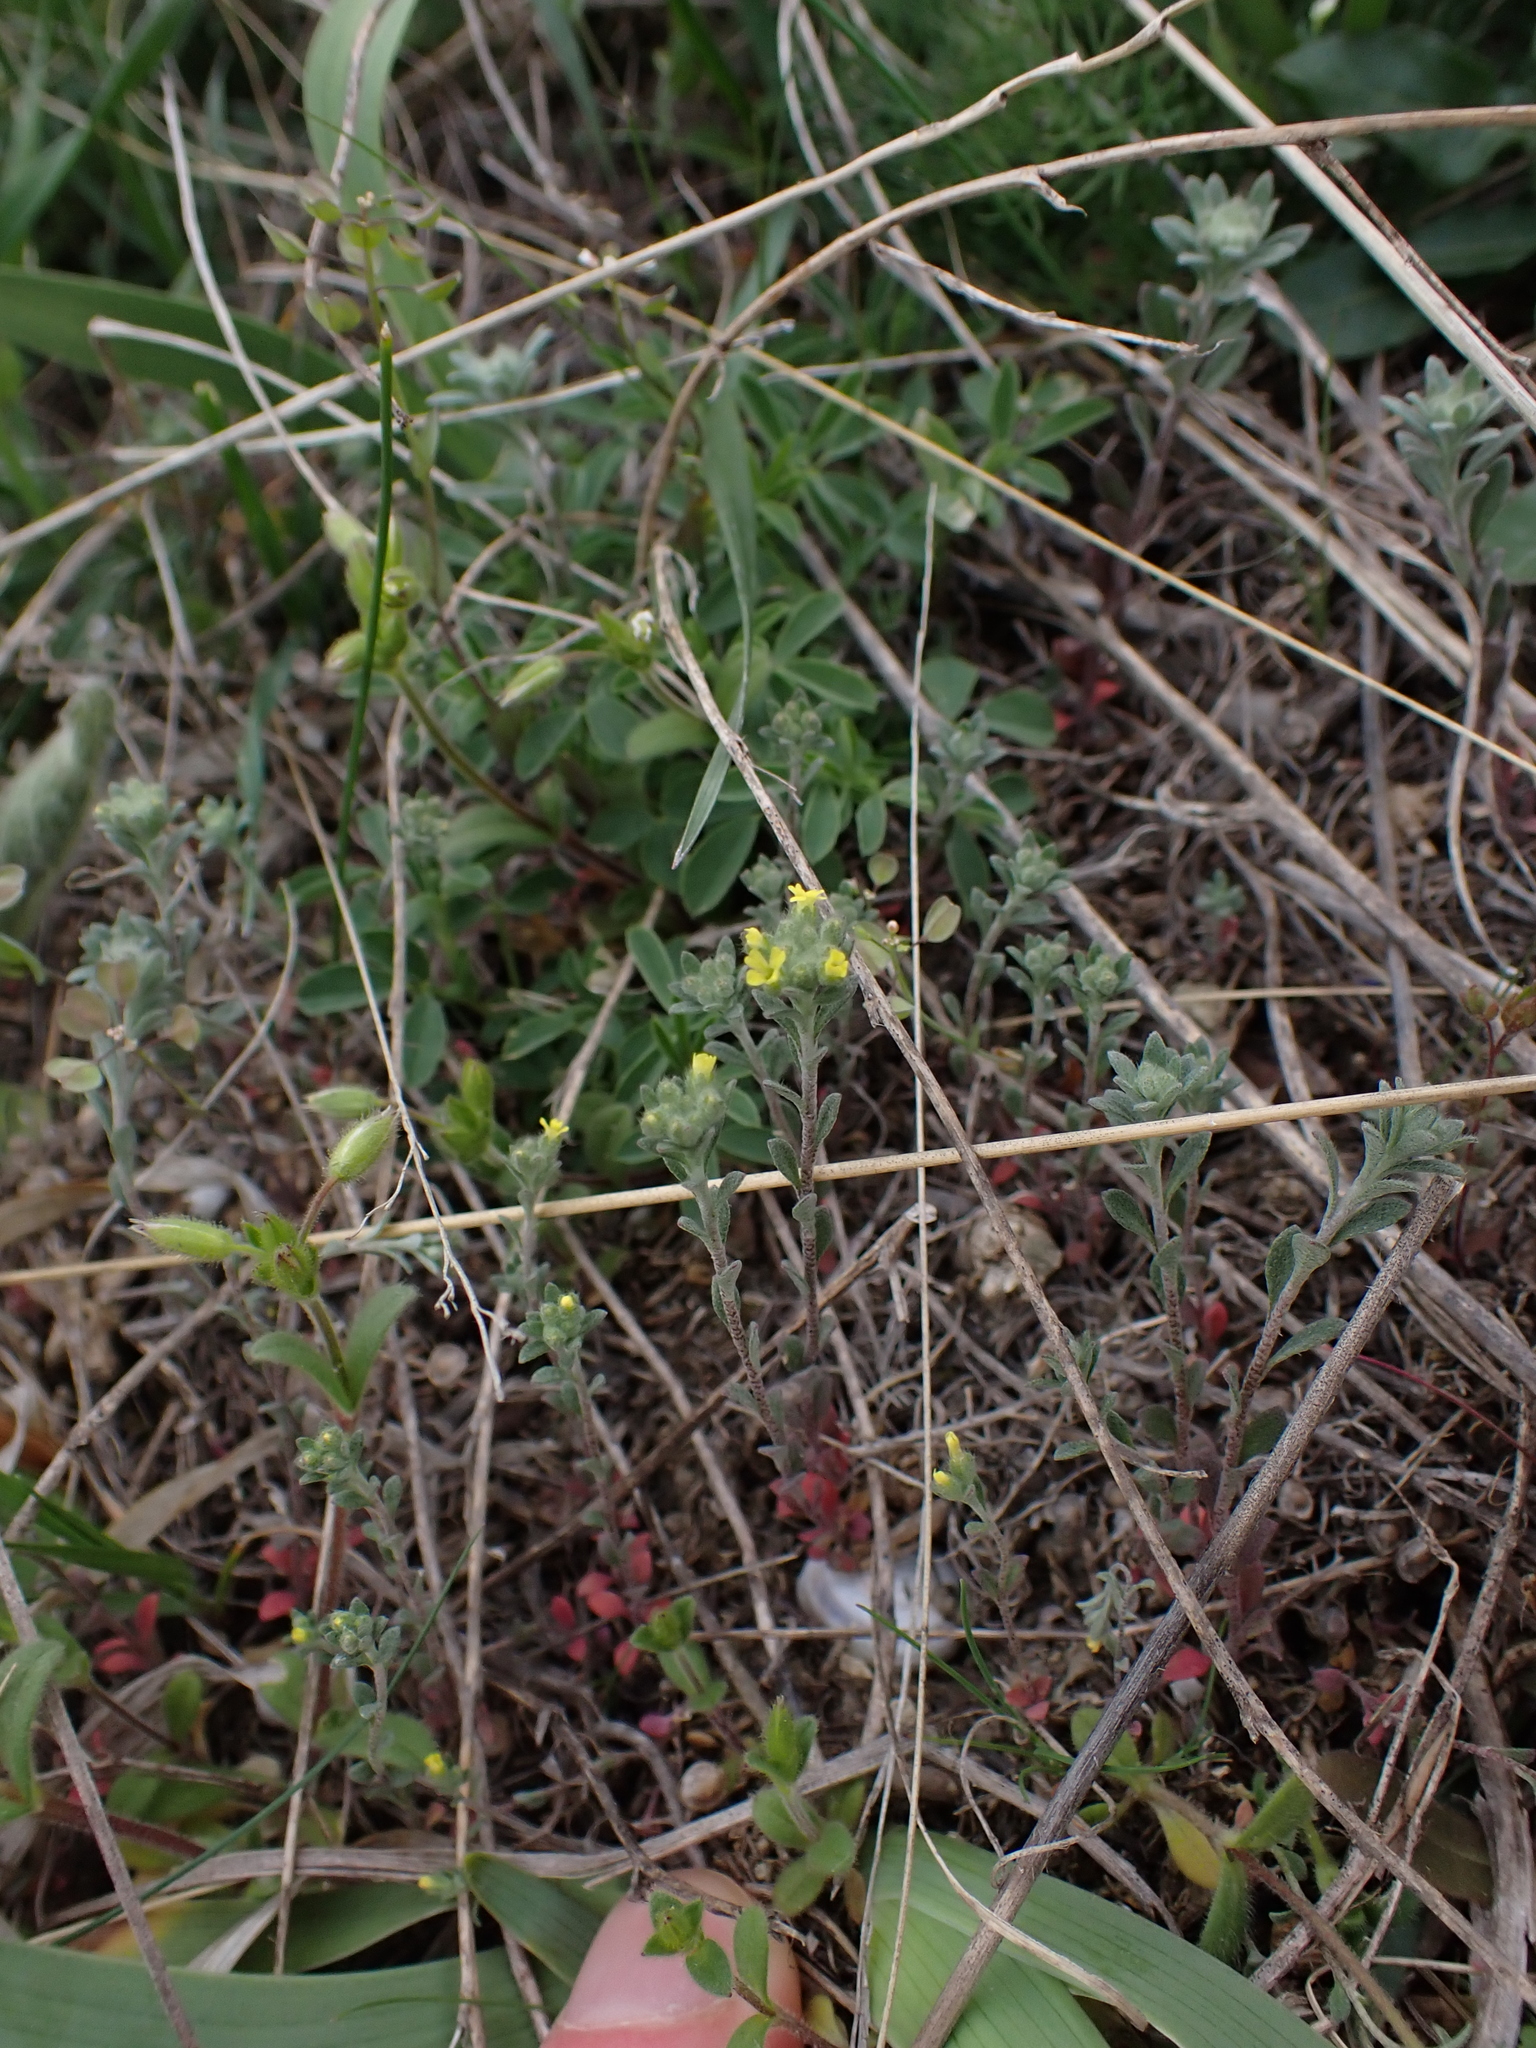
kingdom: Plantae
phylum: Tracheophyta
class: Magnoliopsida
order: Brassicales
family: Brassicaceae
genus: Alyssum
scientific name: Alyssum alyssoides
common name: Small alison
